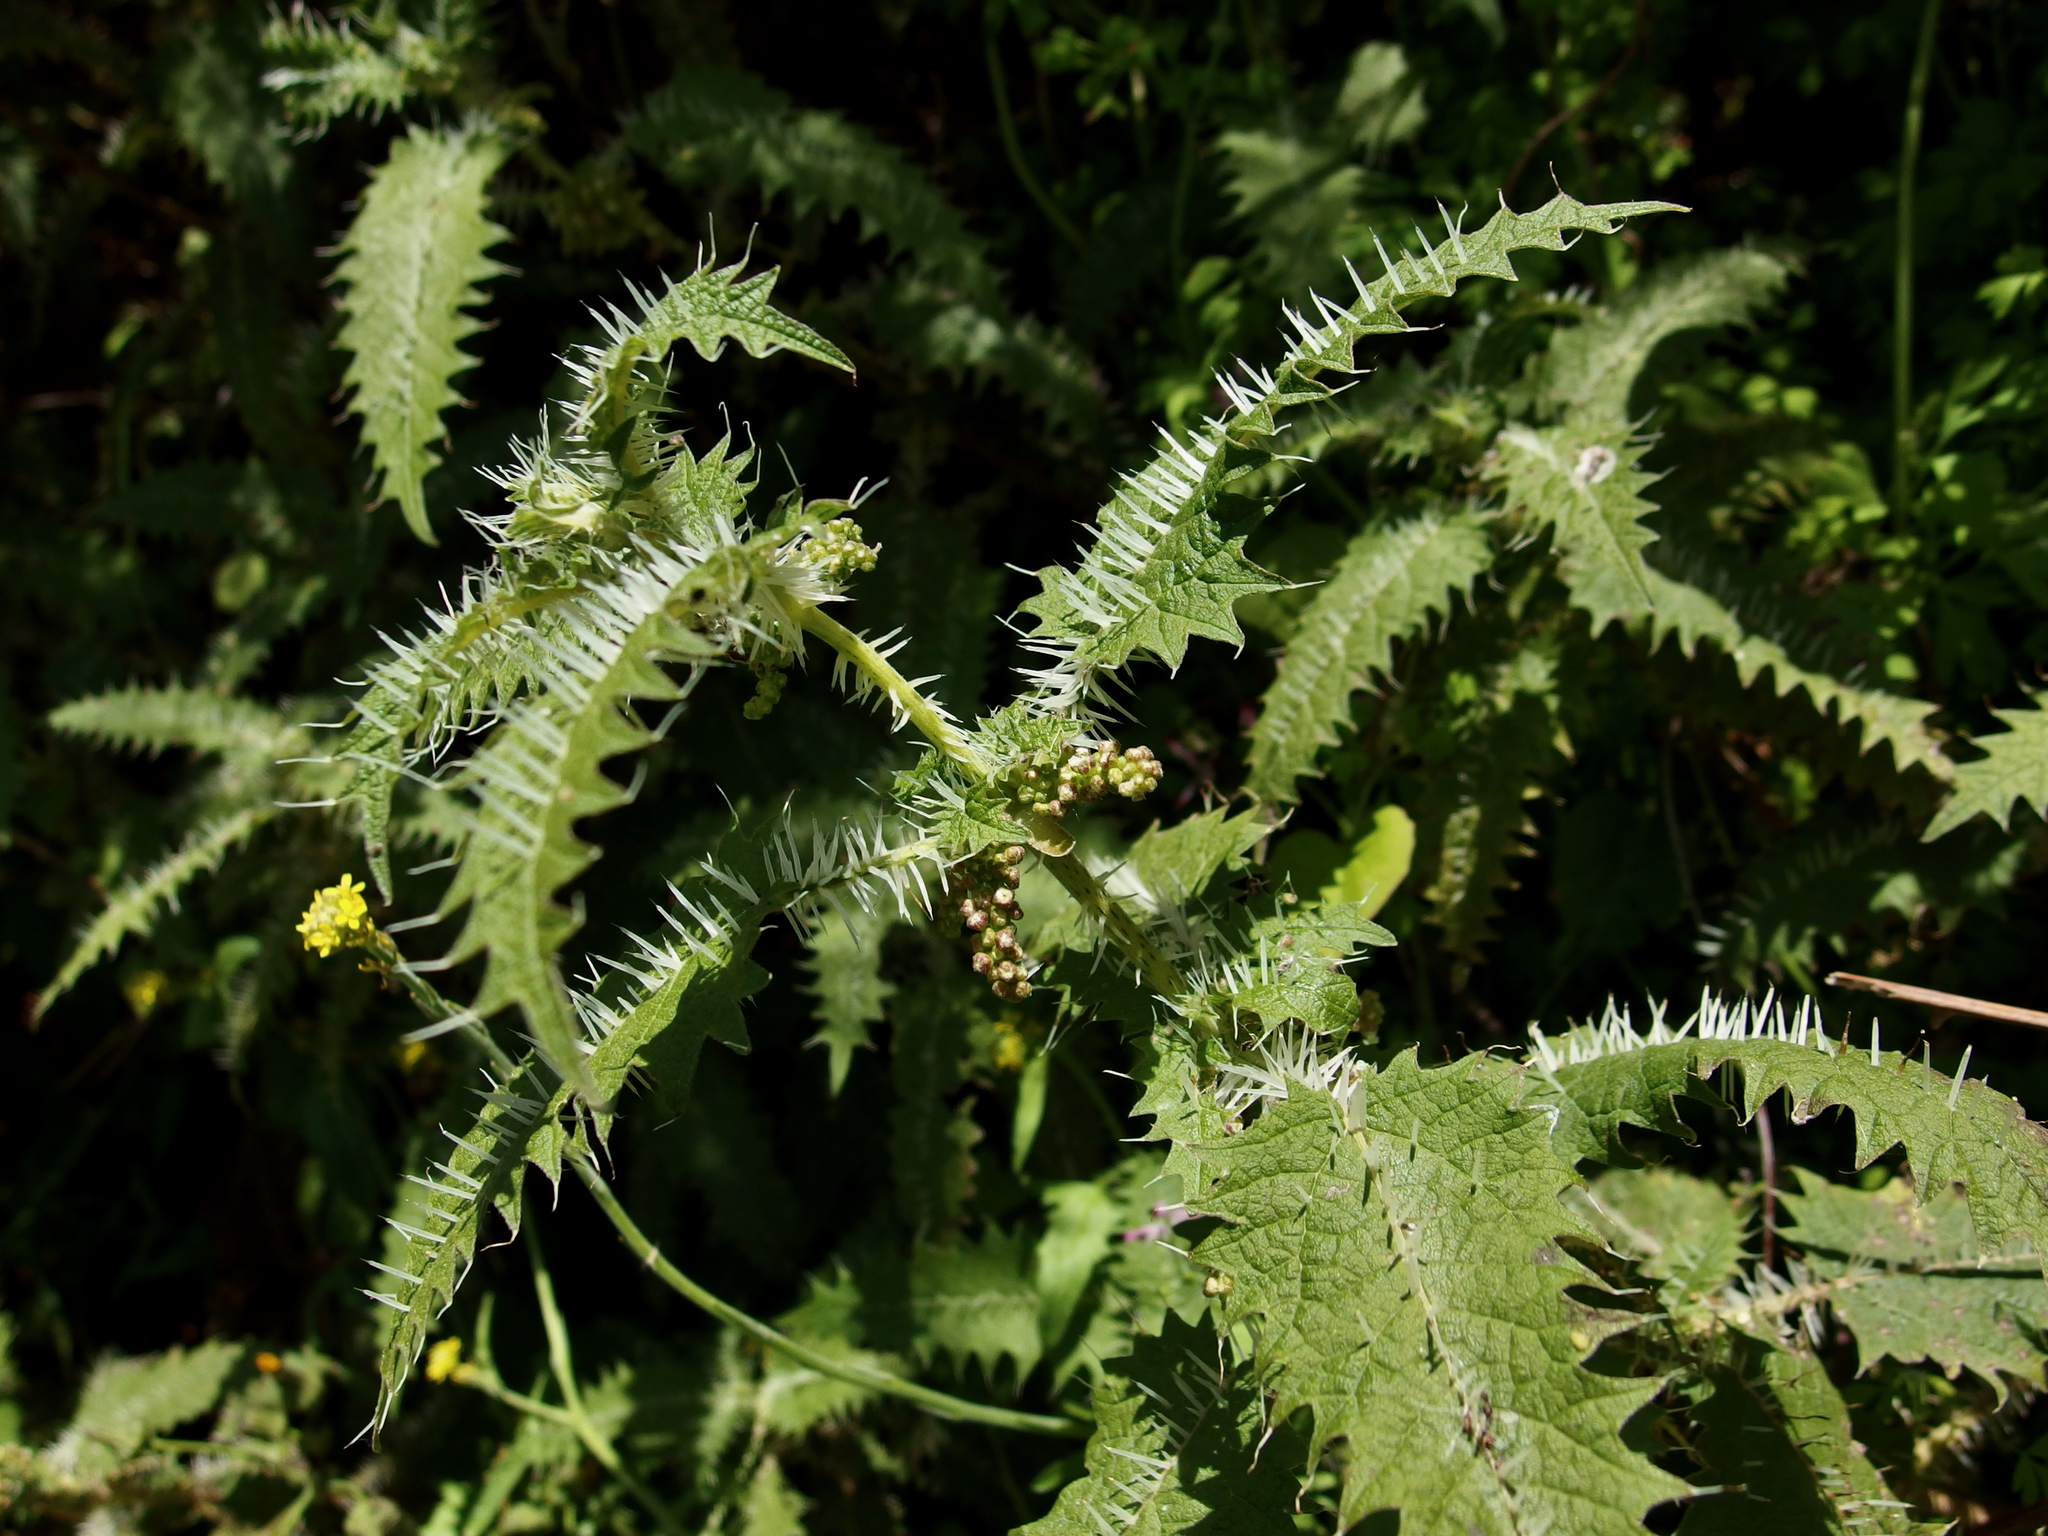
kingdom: Plantae
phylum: Tracheophyta
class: Magnoliopsida
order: Rosales
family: Urticaceae
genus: Urtica
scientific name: Urtica ferox
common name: Tree nettle
